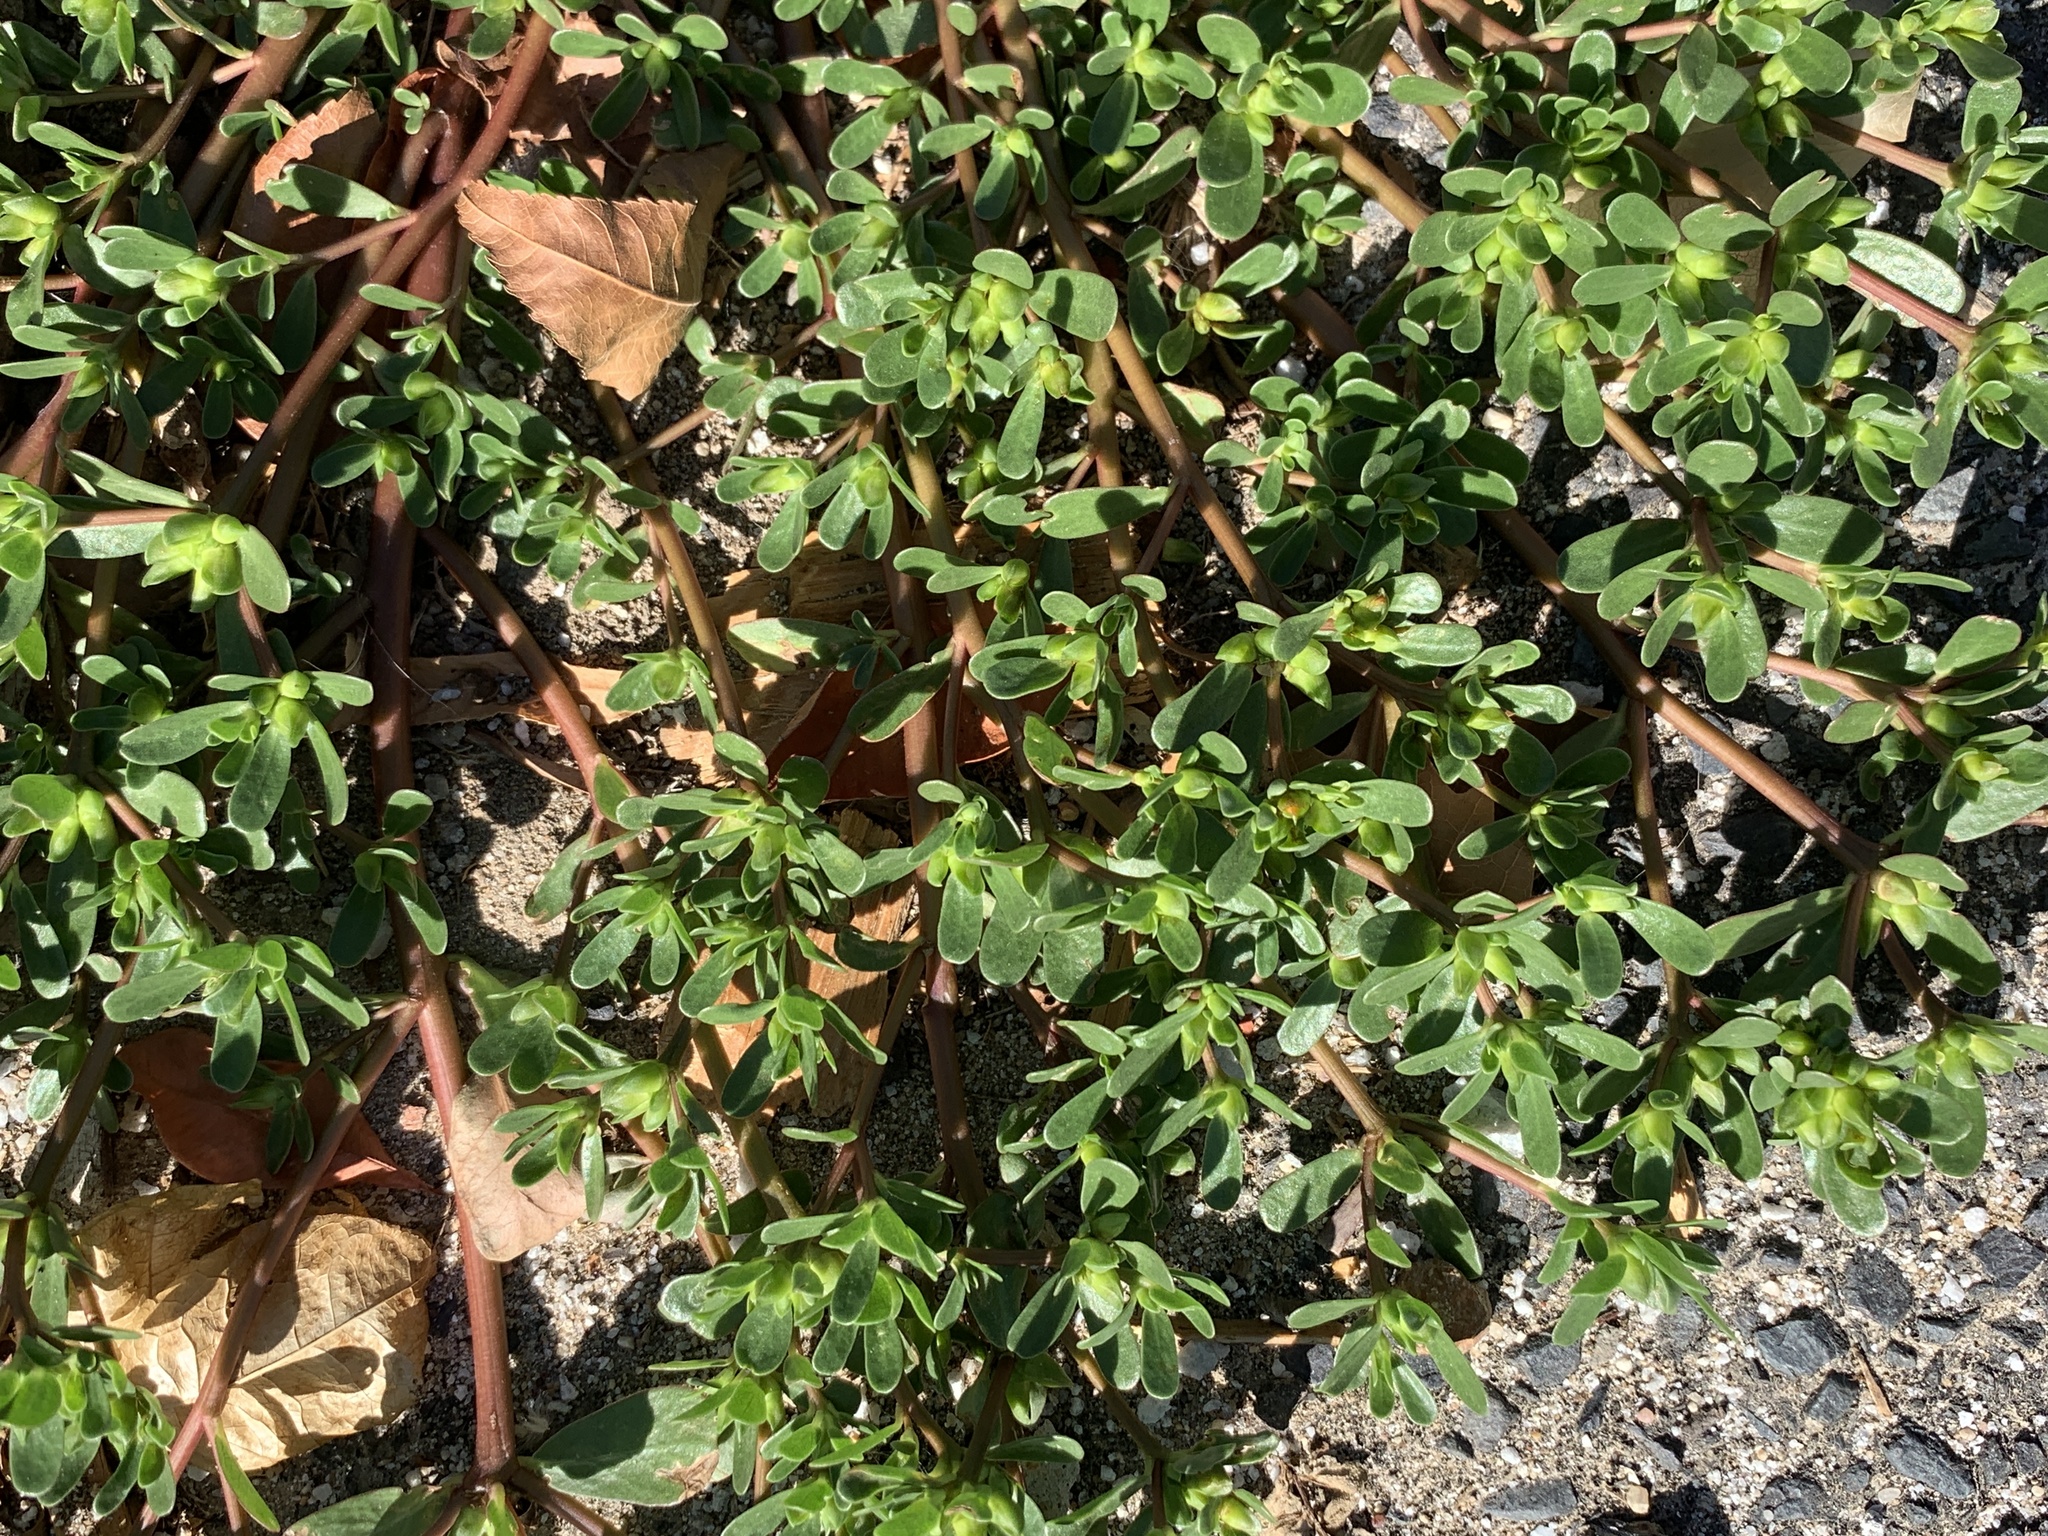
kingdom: Plantae
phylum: Tracheophyta
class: Magnoliopsida
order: Caryophyllales
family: Portulacaceae
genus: Portulaca
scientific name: Portulaca oleracea
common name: Common purslane
